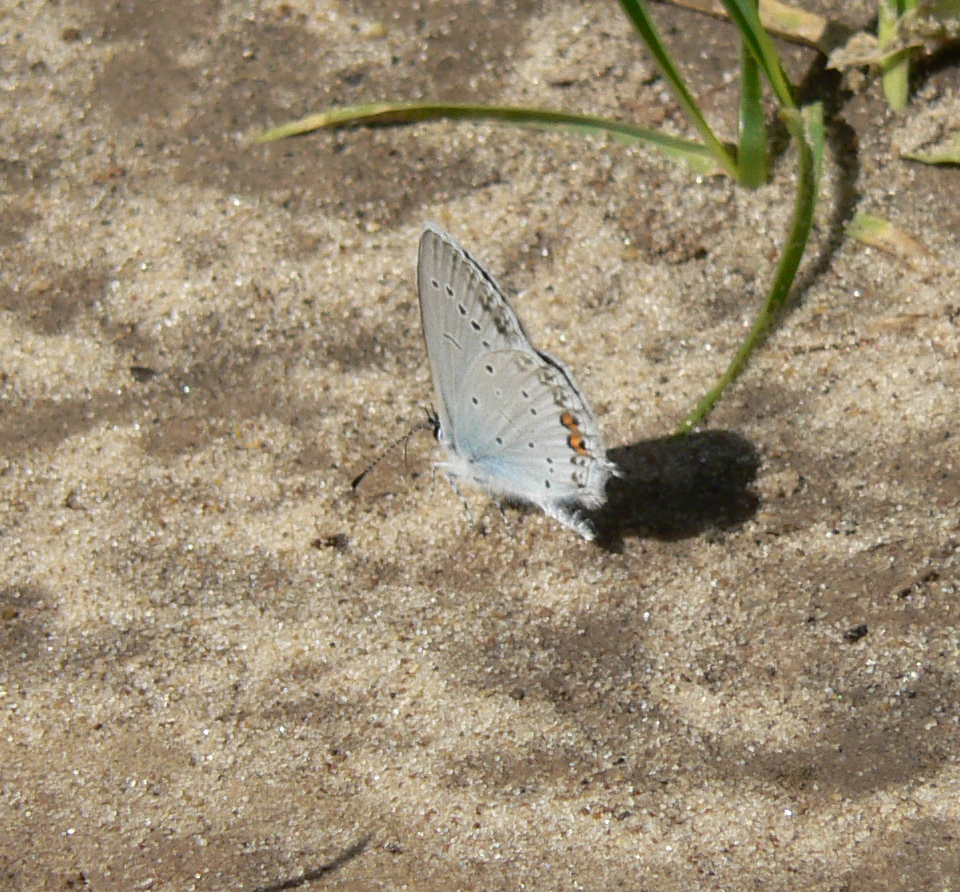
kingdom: Animalia
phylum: Arthropoda
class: Insecta
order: Lepidoptera
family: Lycaenidae
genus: Elkalyce
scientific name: Elkalyce argiades
